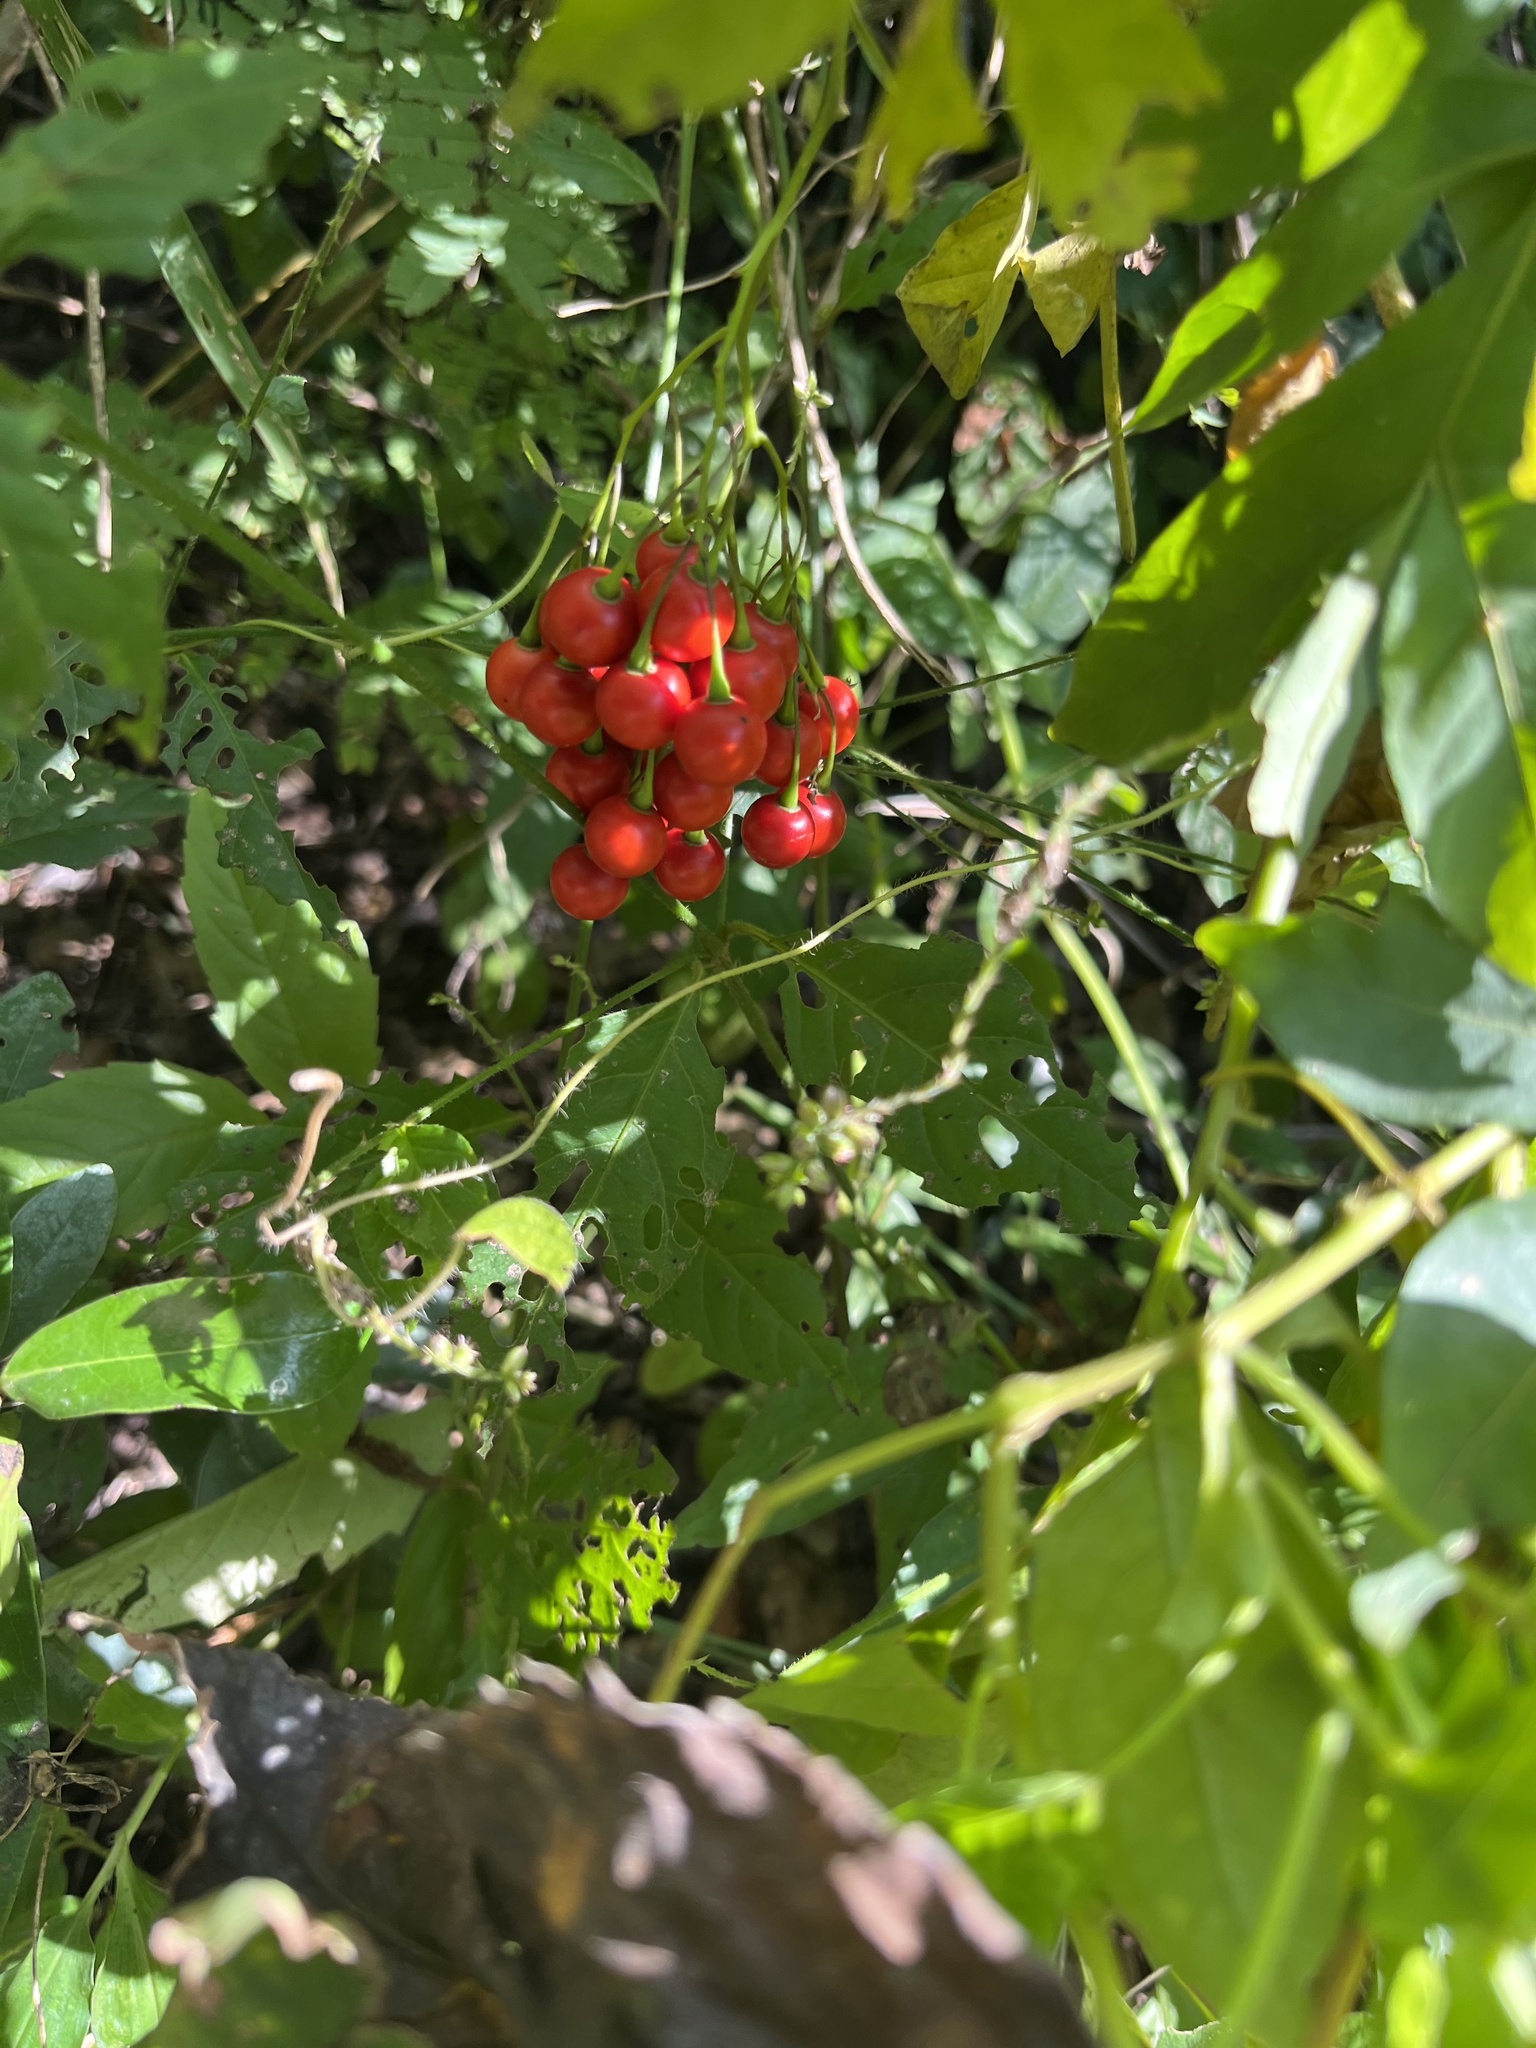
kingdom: Plantae
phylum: Tracheophyta
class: Magnoliopsida
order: Solanales
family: Solanaceae
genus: Solanum
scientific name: Solanum seaforthianum
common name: Brazilian nightshade
